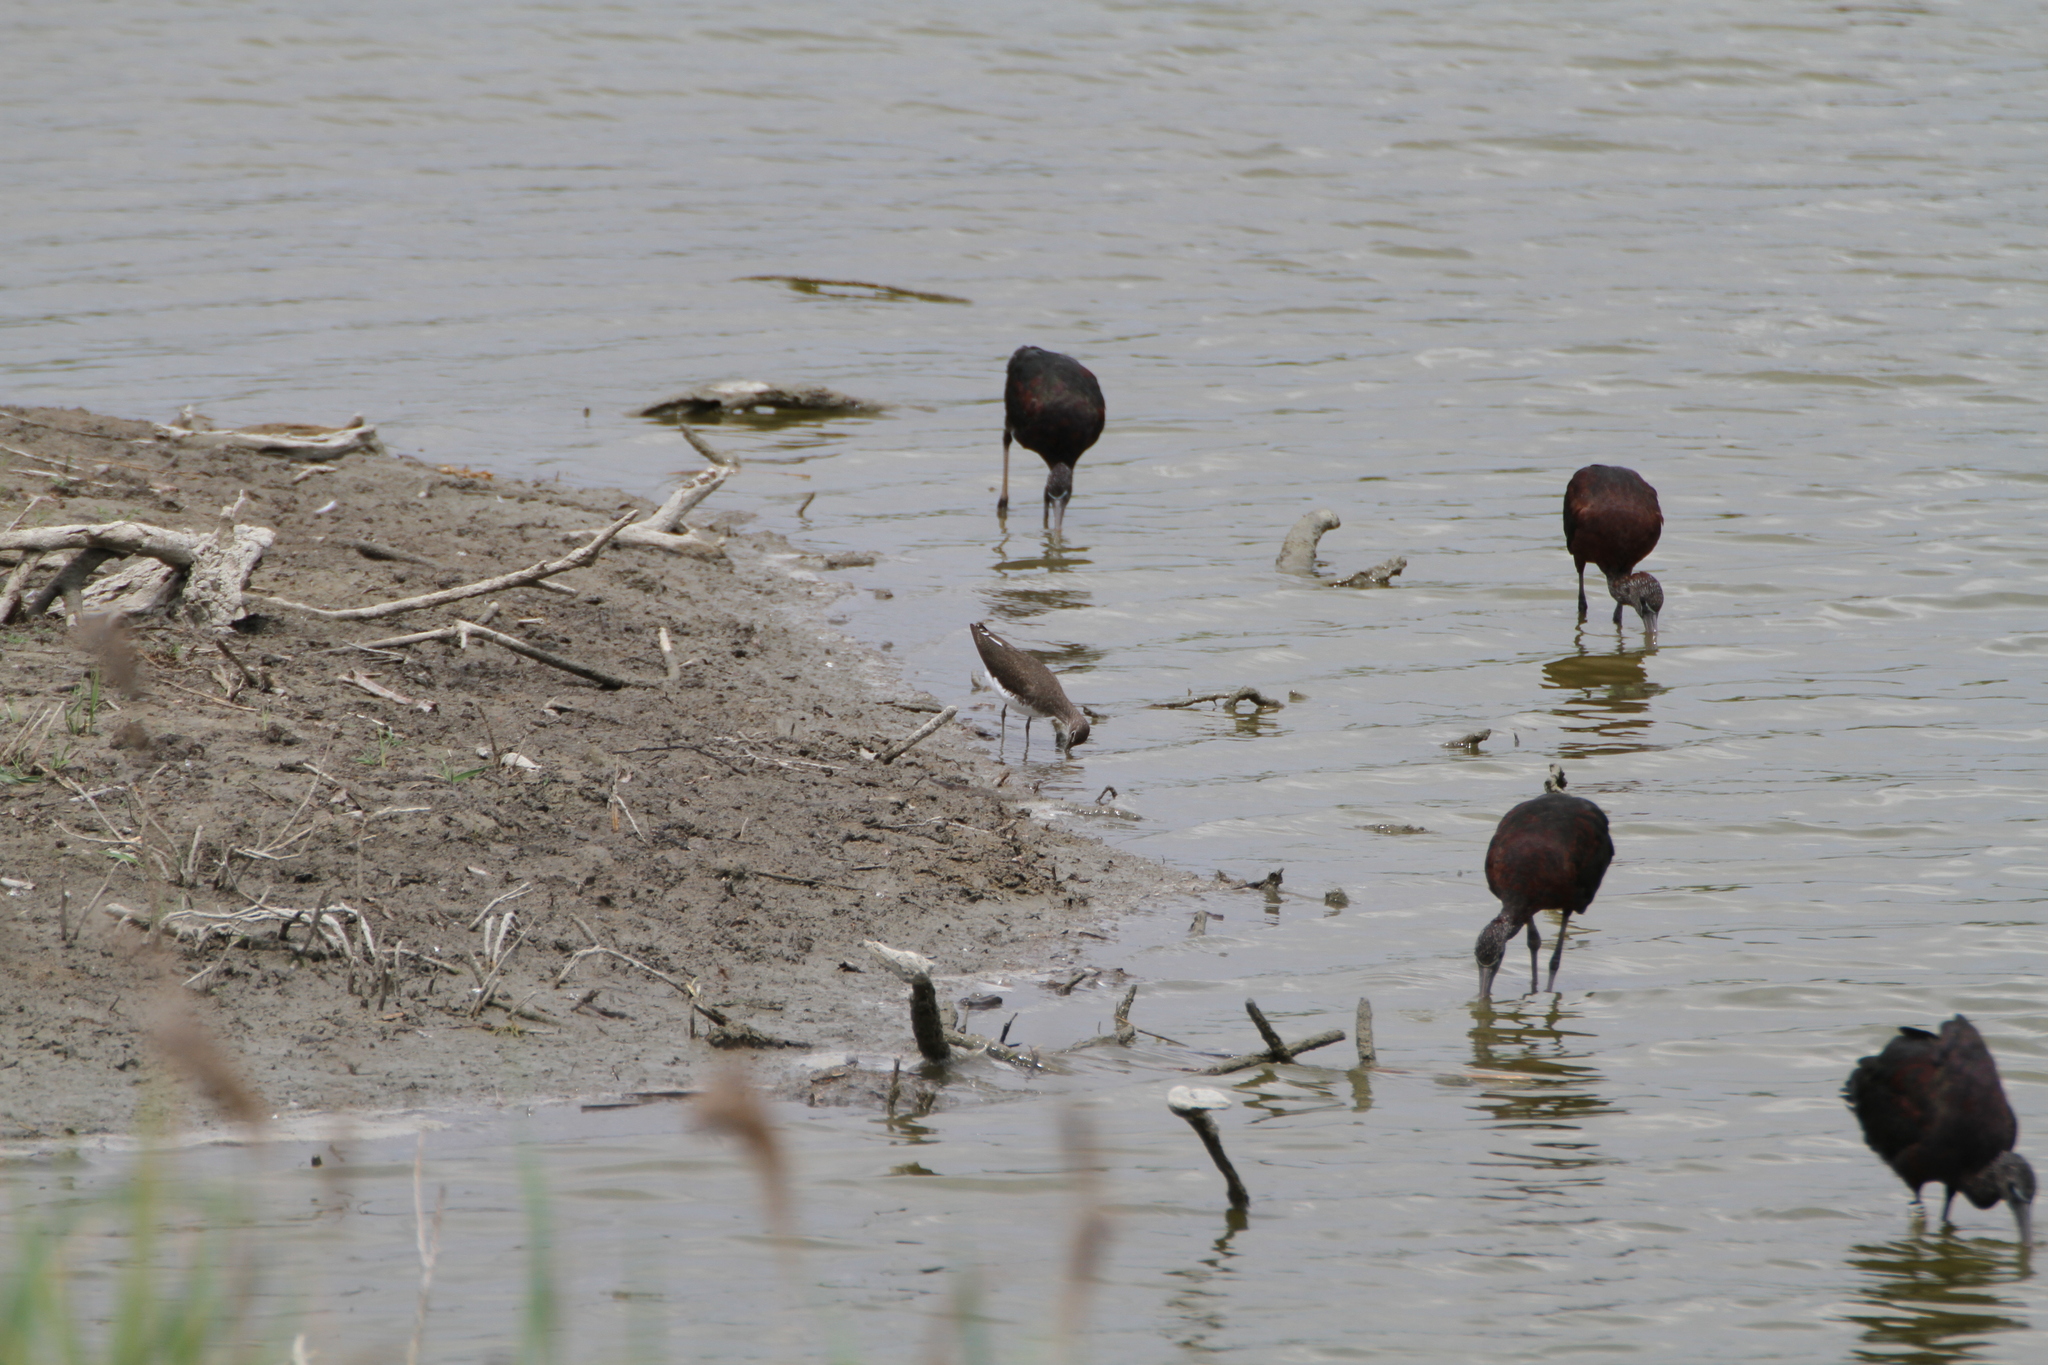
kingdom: Animalia
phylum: Chordata
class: Aves
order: Charadriiformes
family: Scolopacidae
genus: Tringa
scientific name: Tringa ochropus
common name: Green sandpiper
